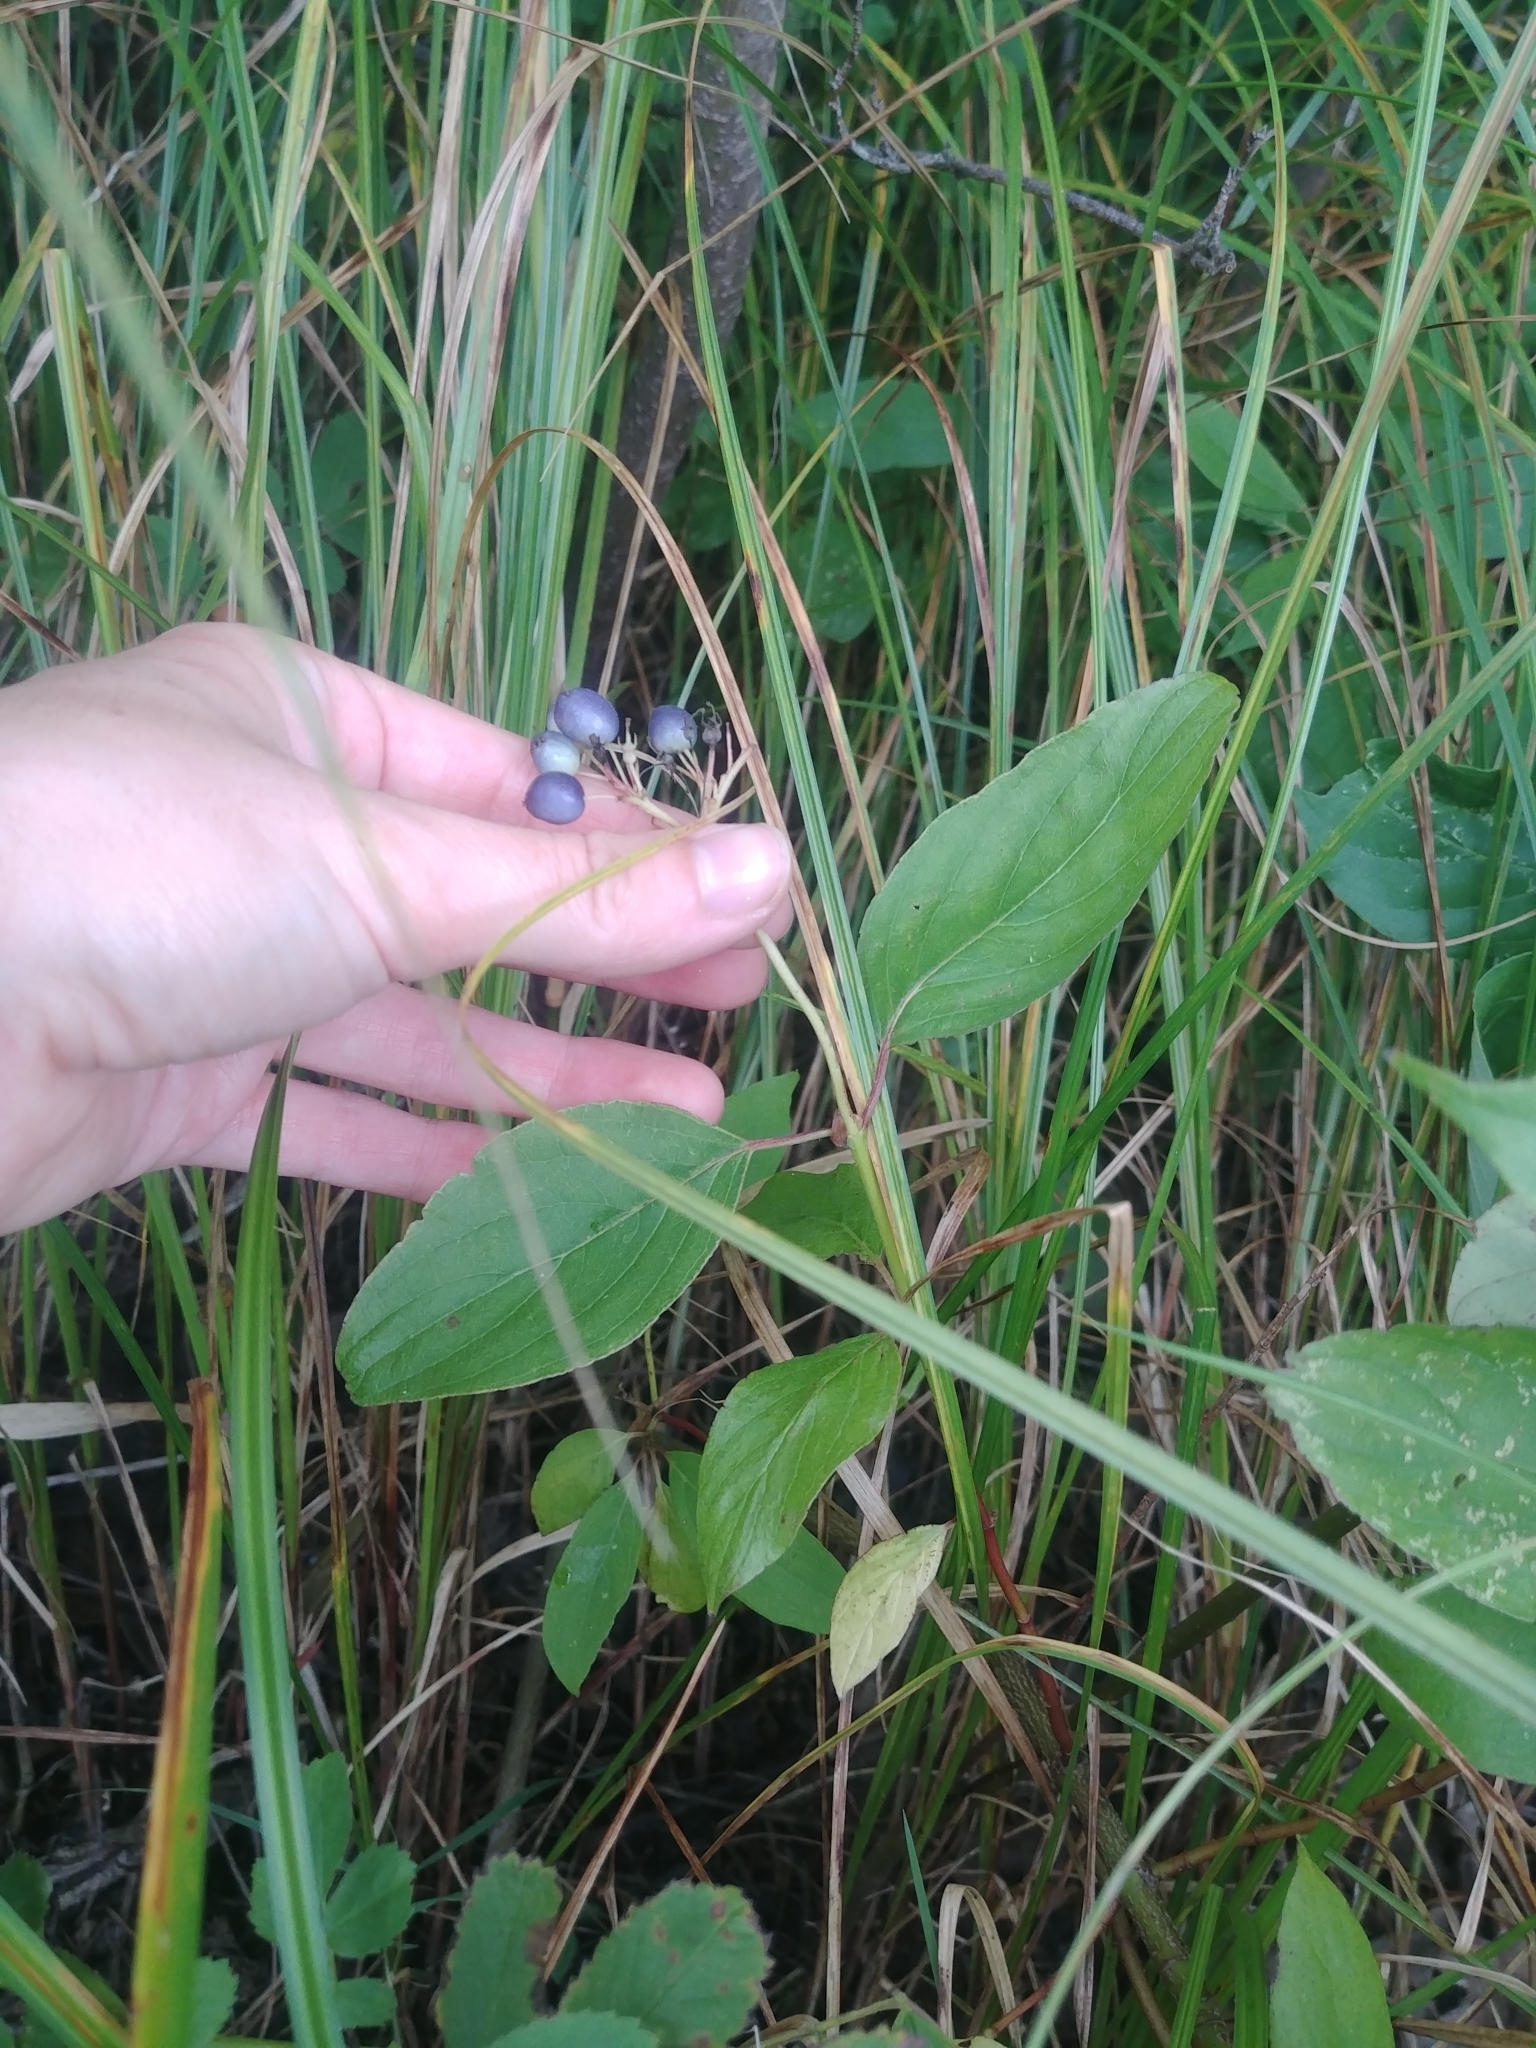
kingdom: Plantae
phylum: Tracheophyta
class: Magnoliopsida
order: Cornales
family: Cornaceae
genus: Cornus
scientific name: Cornus amomum
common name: Silky dogwood
